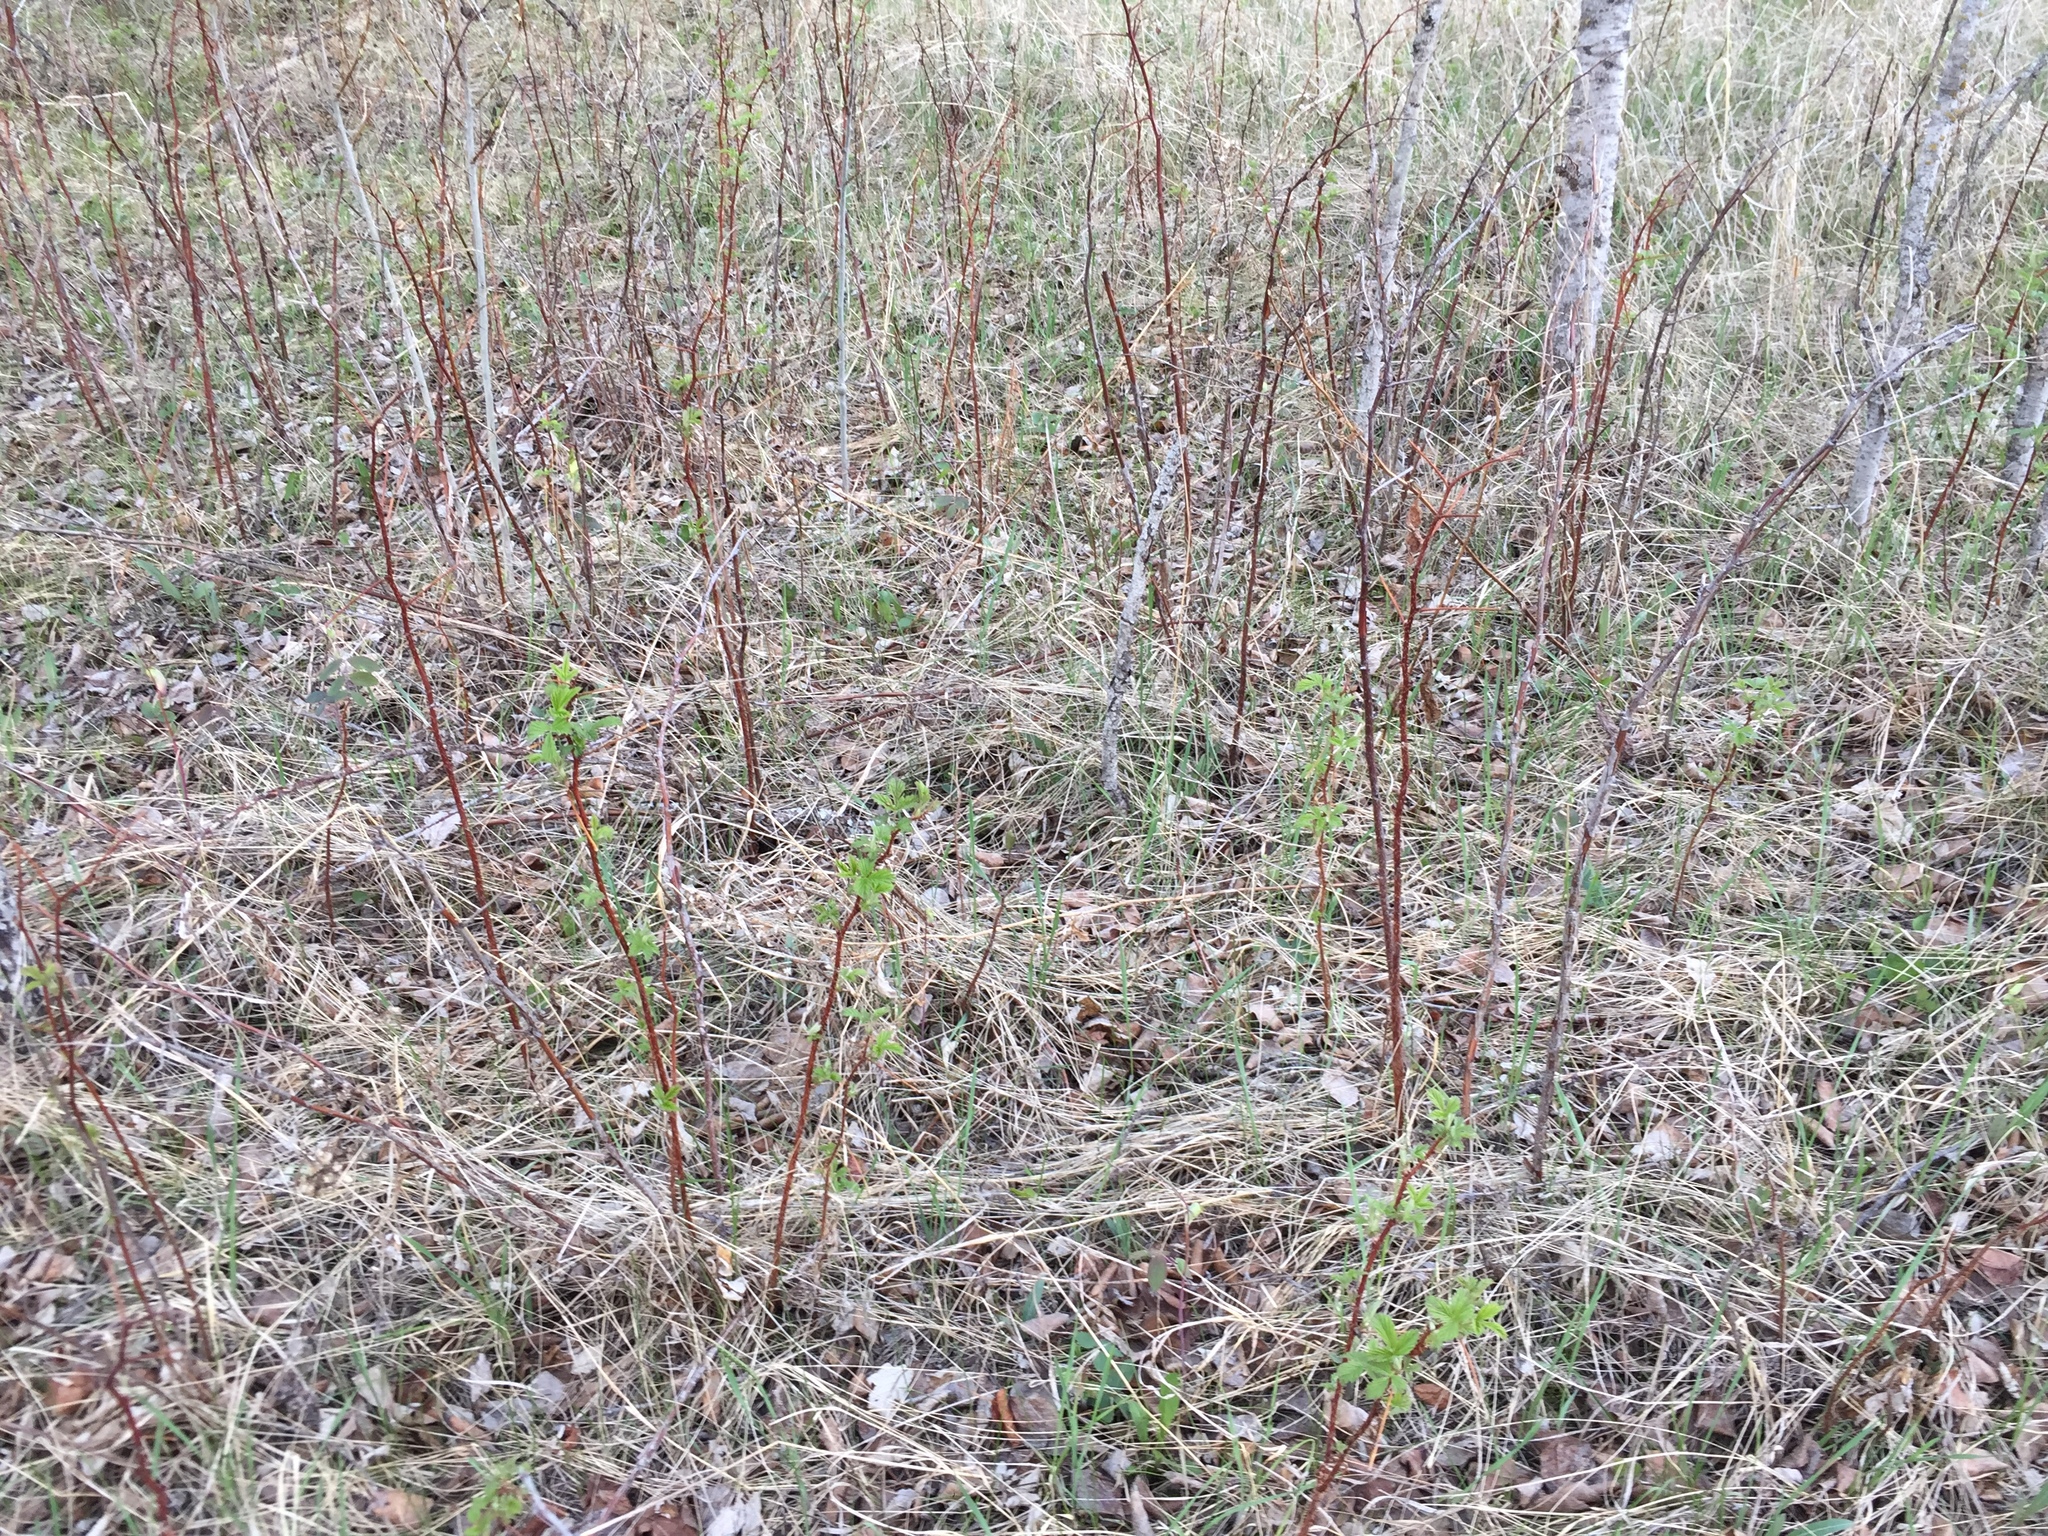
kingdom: Plantae
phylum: Tracheophyta
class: Magnoliopsida
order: Rosales
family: Rosaceae
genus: Rubus
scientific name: Rubus idaeus
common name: Raspberry
